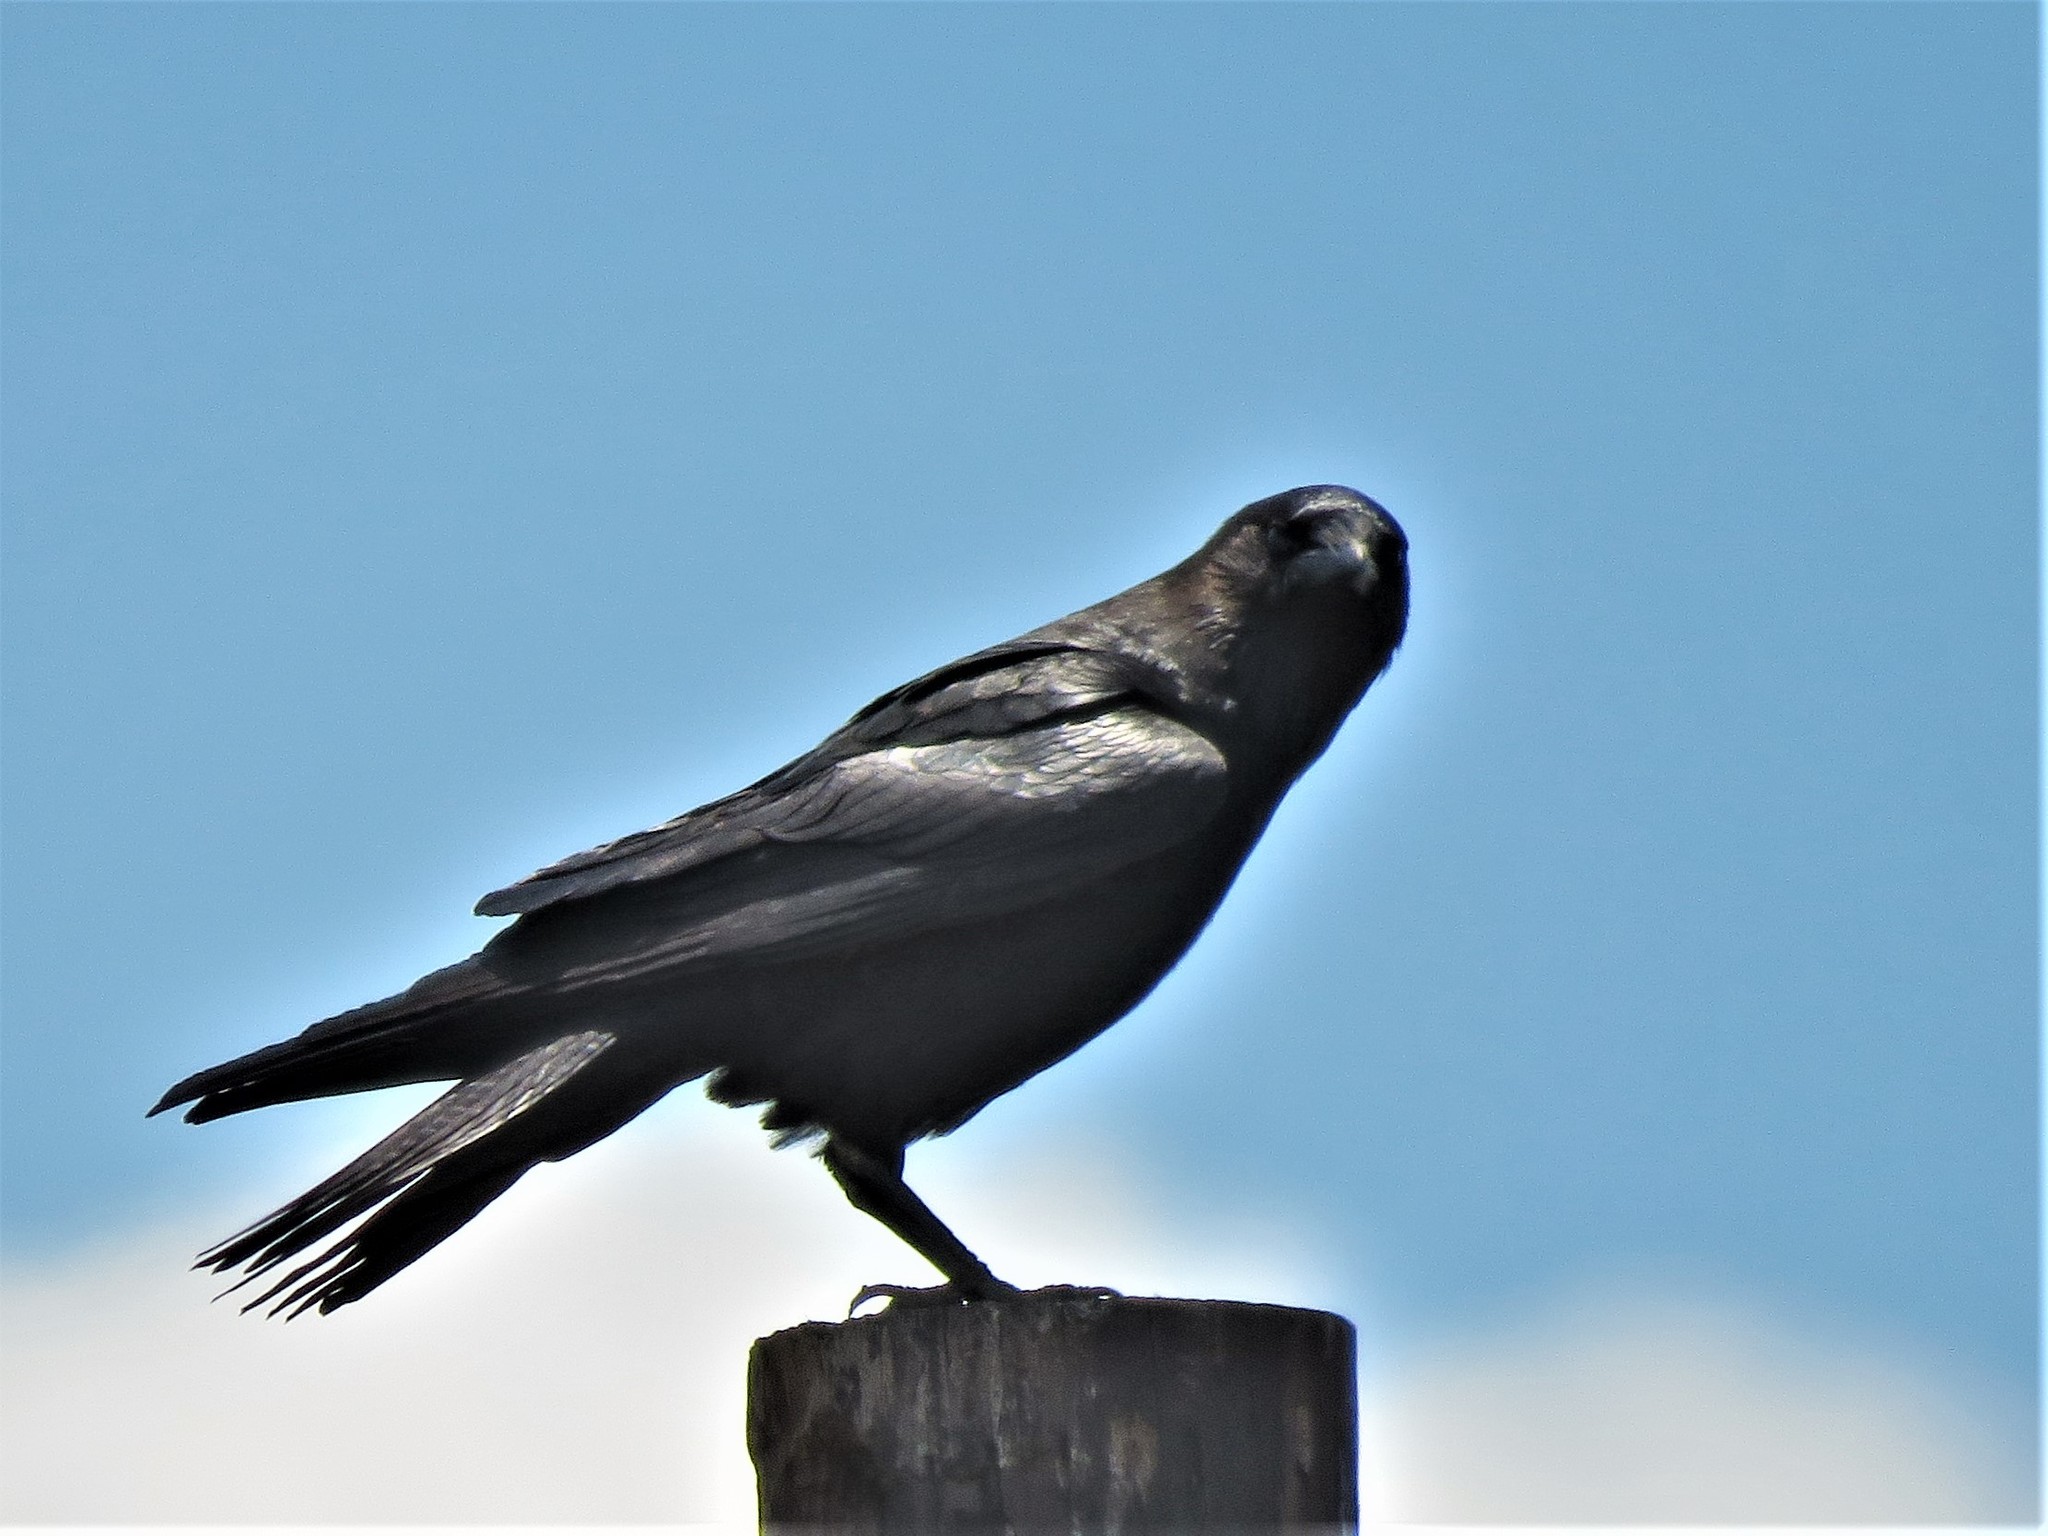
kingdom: Animalia
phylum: Chordata
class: Aves
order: Passeriformes
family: Corvidae
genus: Corvus
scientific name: Corvus cryptoleucus
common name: Chihuahuan raven
